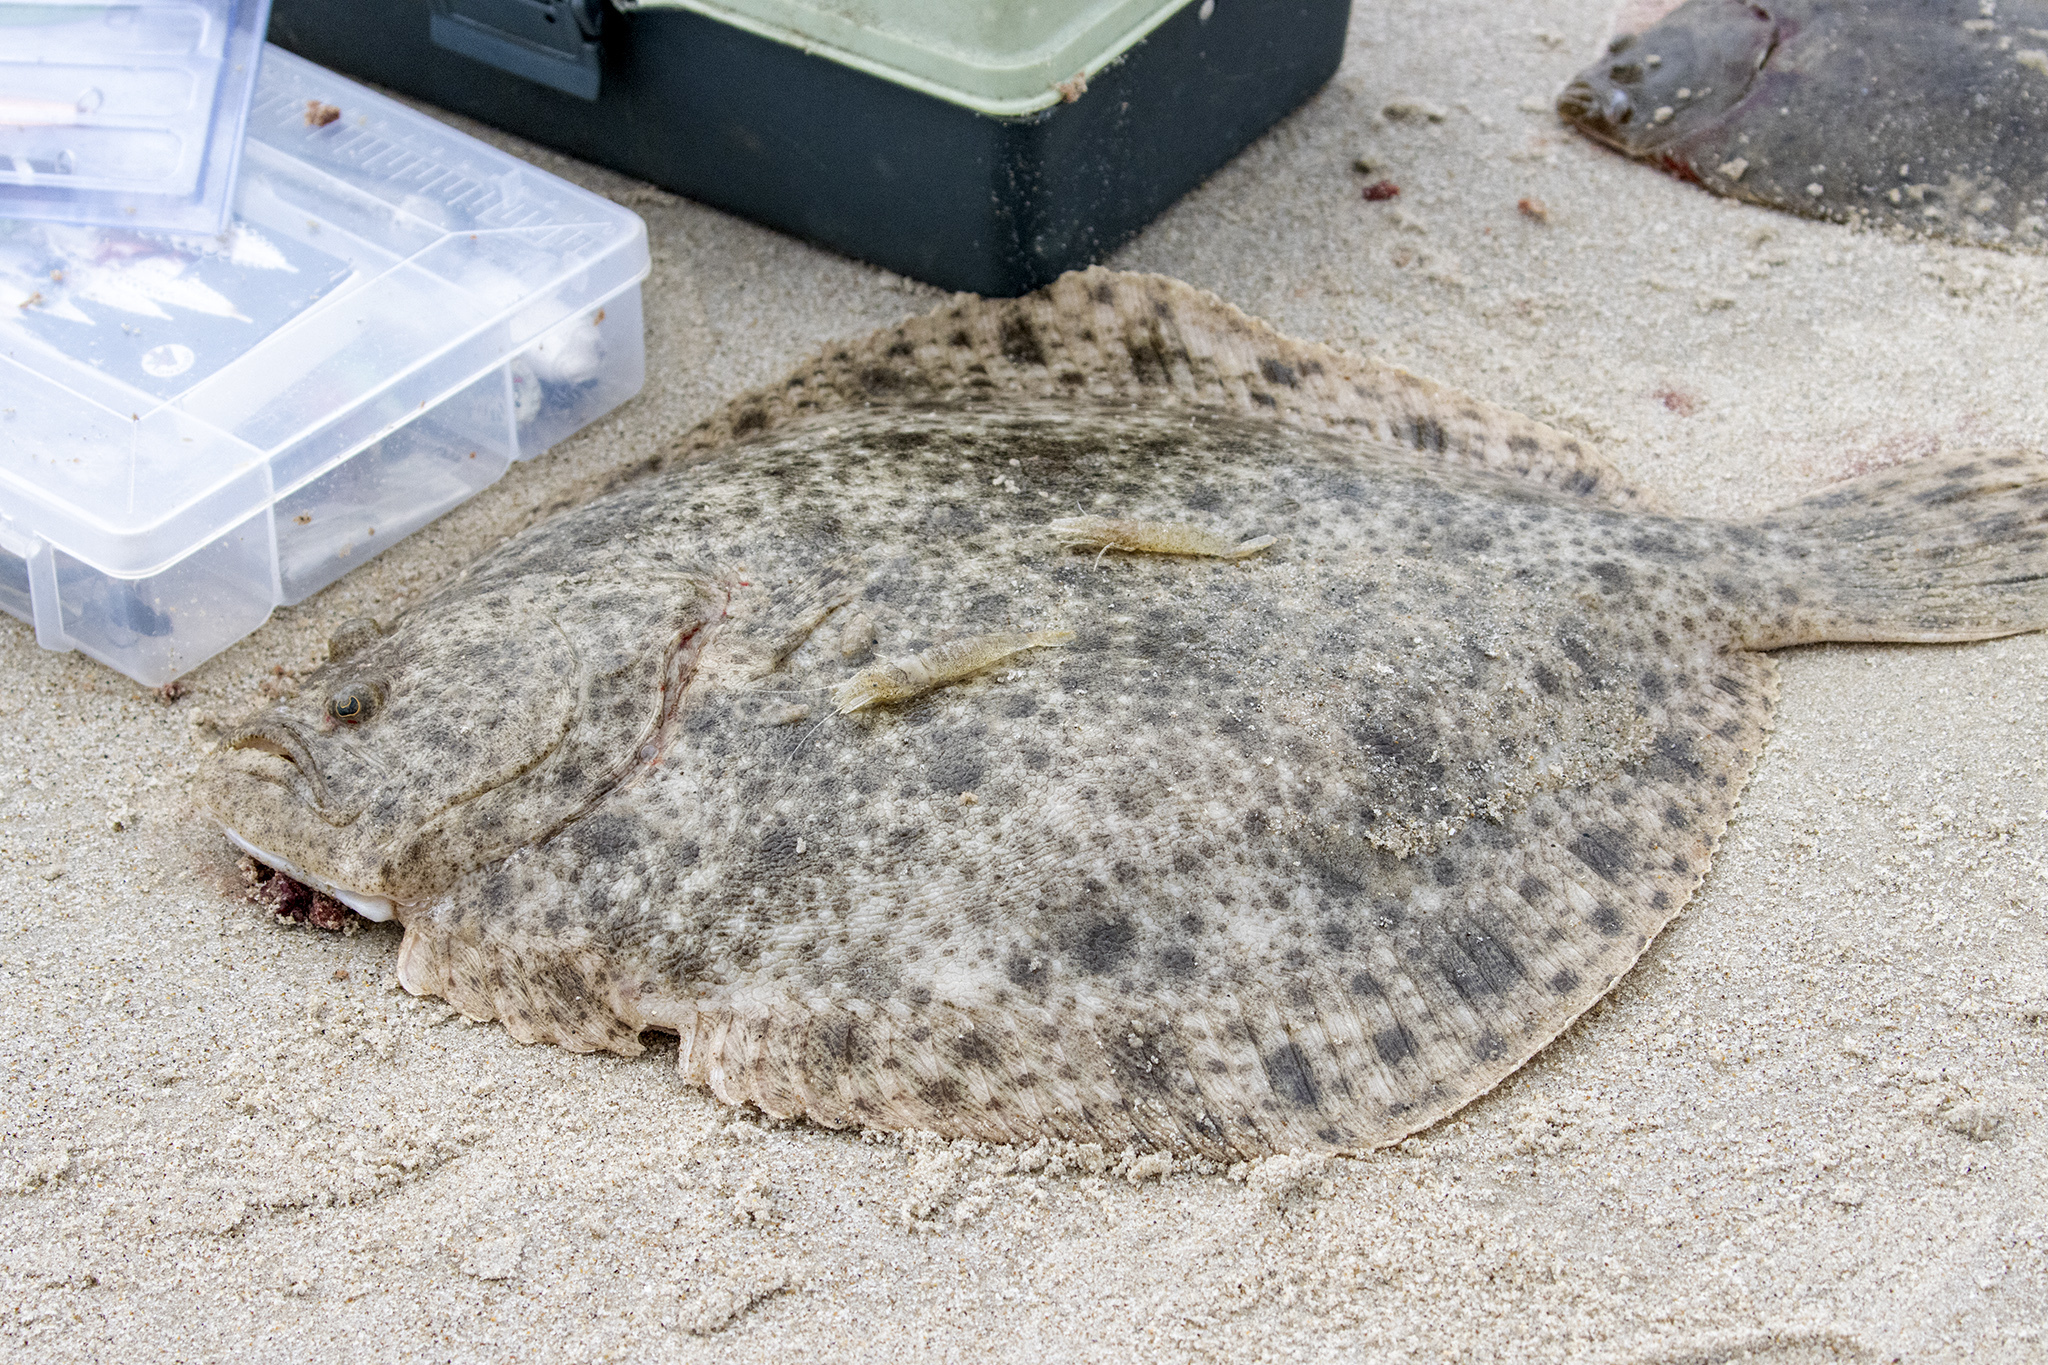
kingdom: Animalia
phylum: Chordata
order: Pleuronectiformes
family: Scophthalmidae
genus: Scophthalmus
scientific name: Scophthalmus rhombus
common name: Brill
